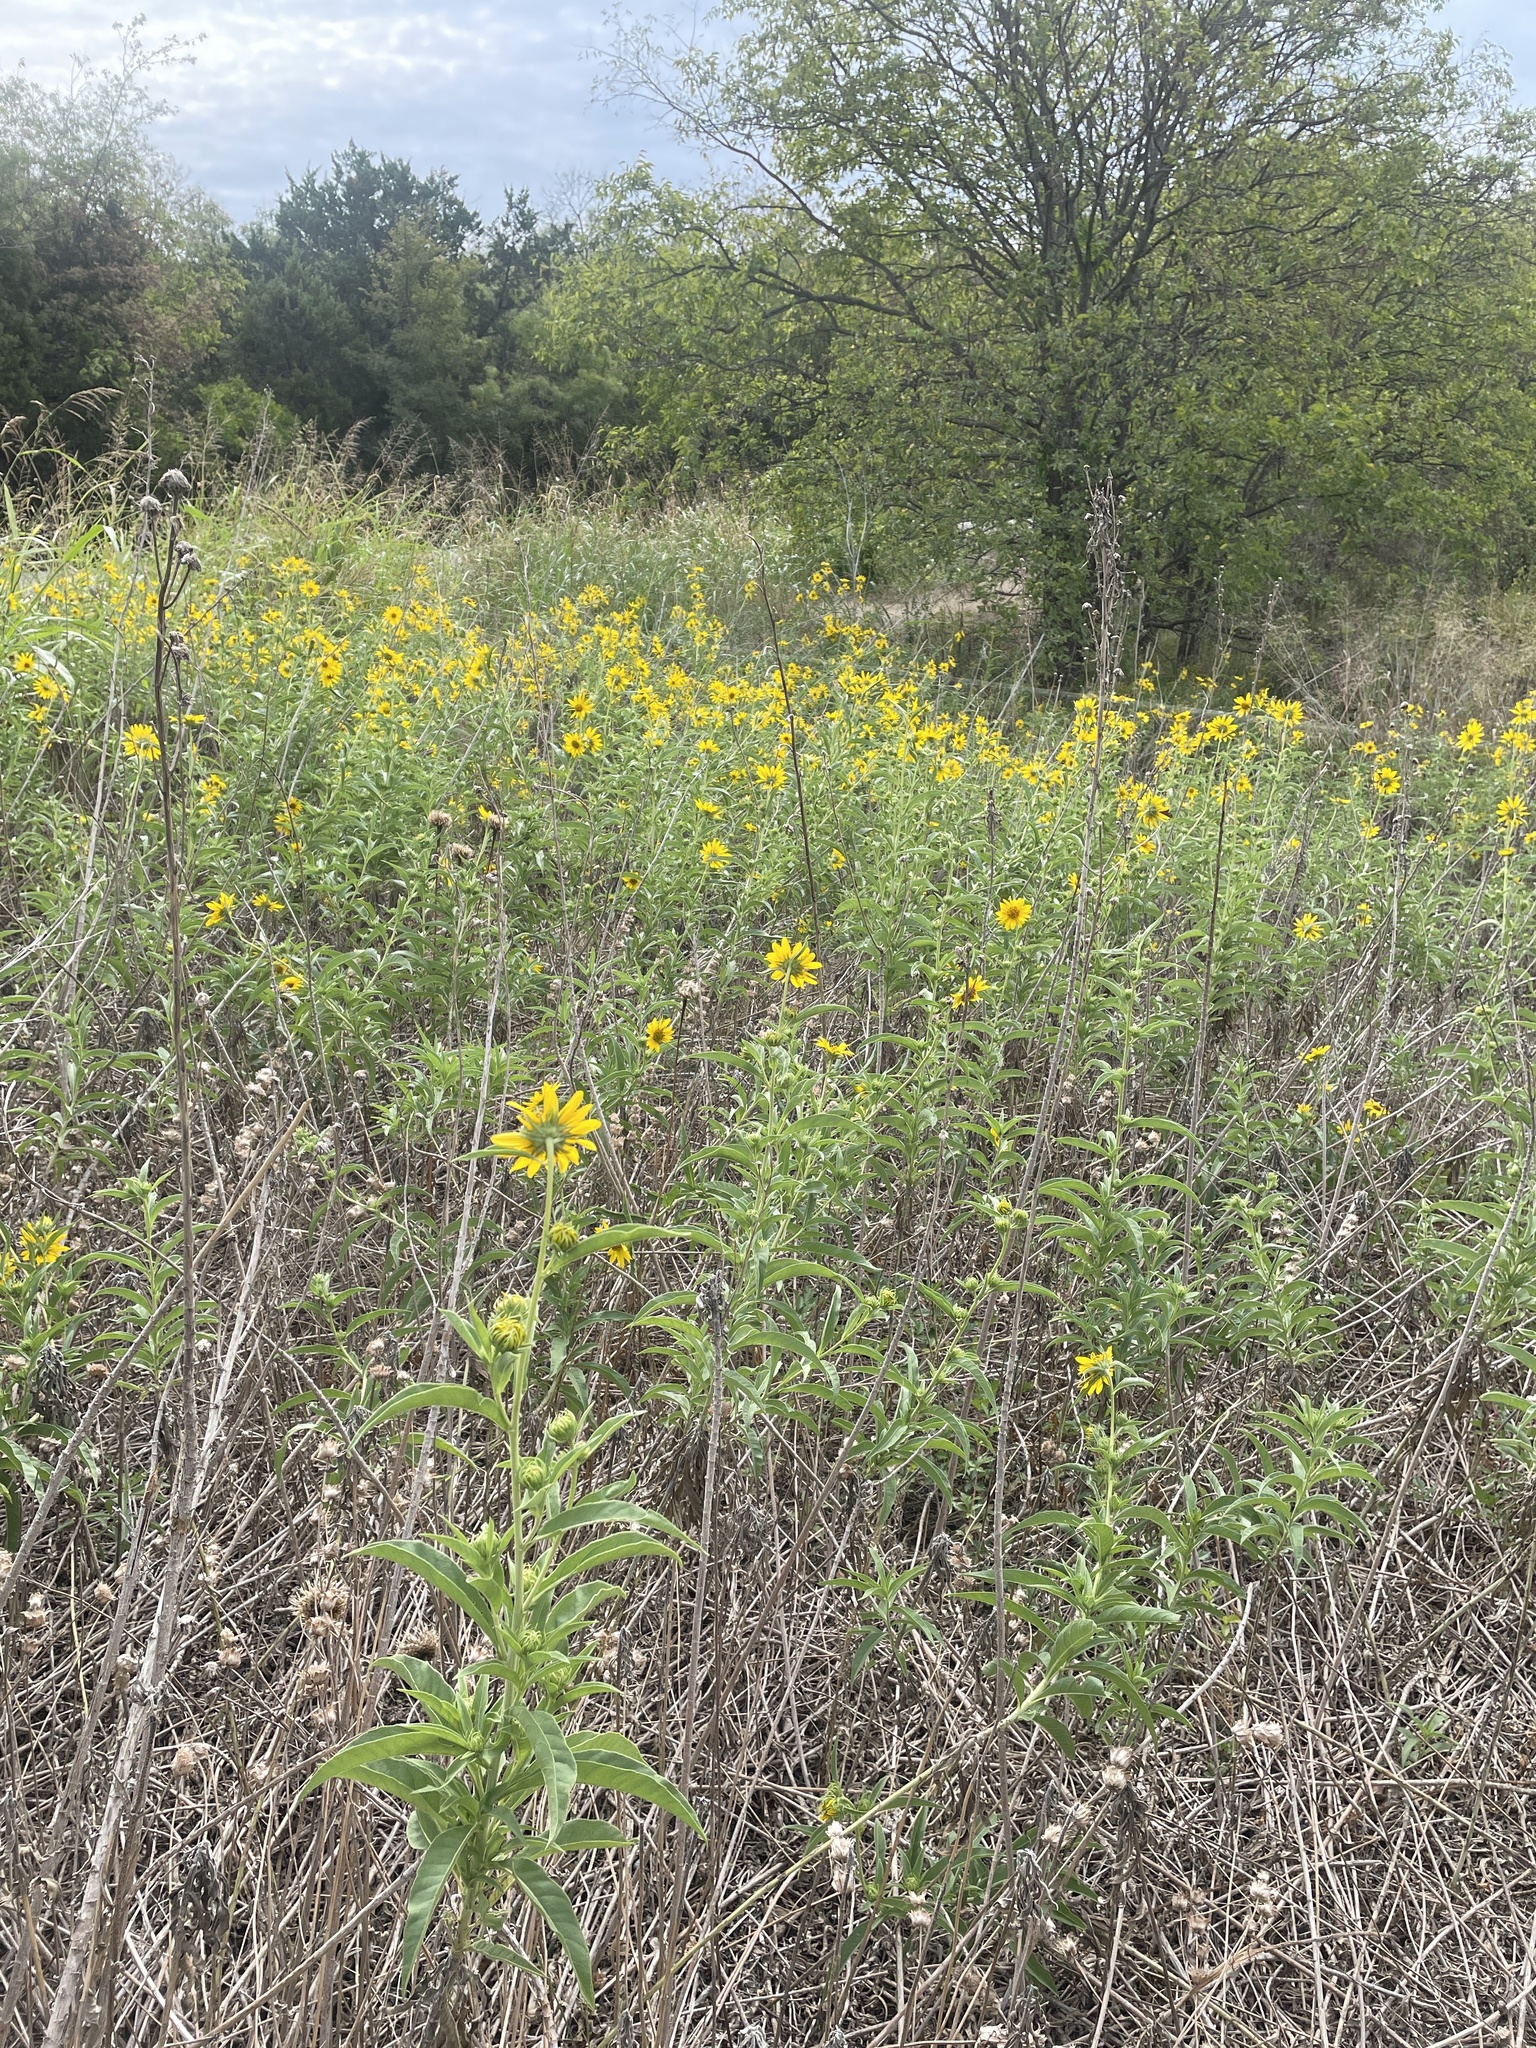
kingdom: Plantae
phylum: Tracheophyta
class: Magnoliopsida
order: Asterales
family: Asteraceae
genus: Helianthus
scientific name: Helianthus maximiliani
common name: Maximilian's sunflower
